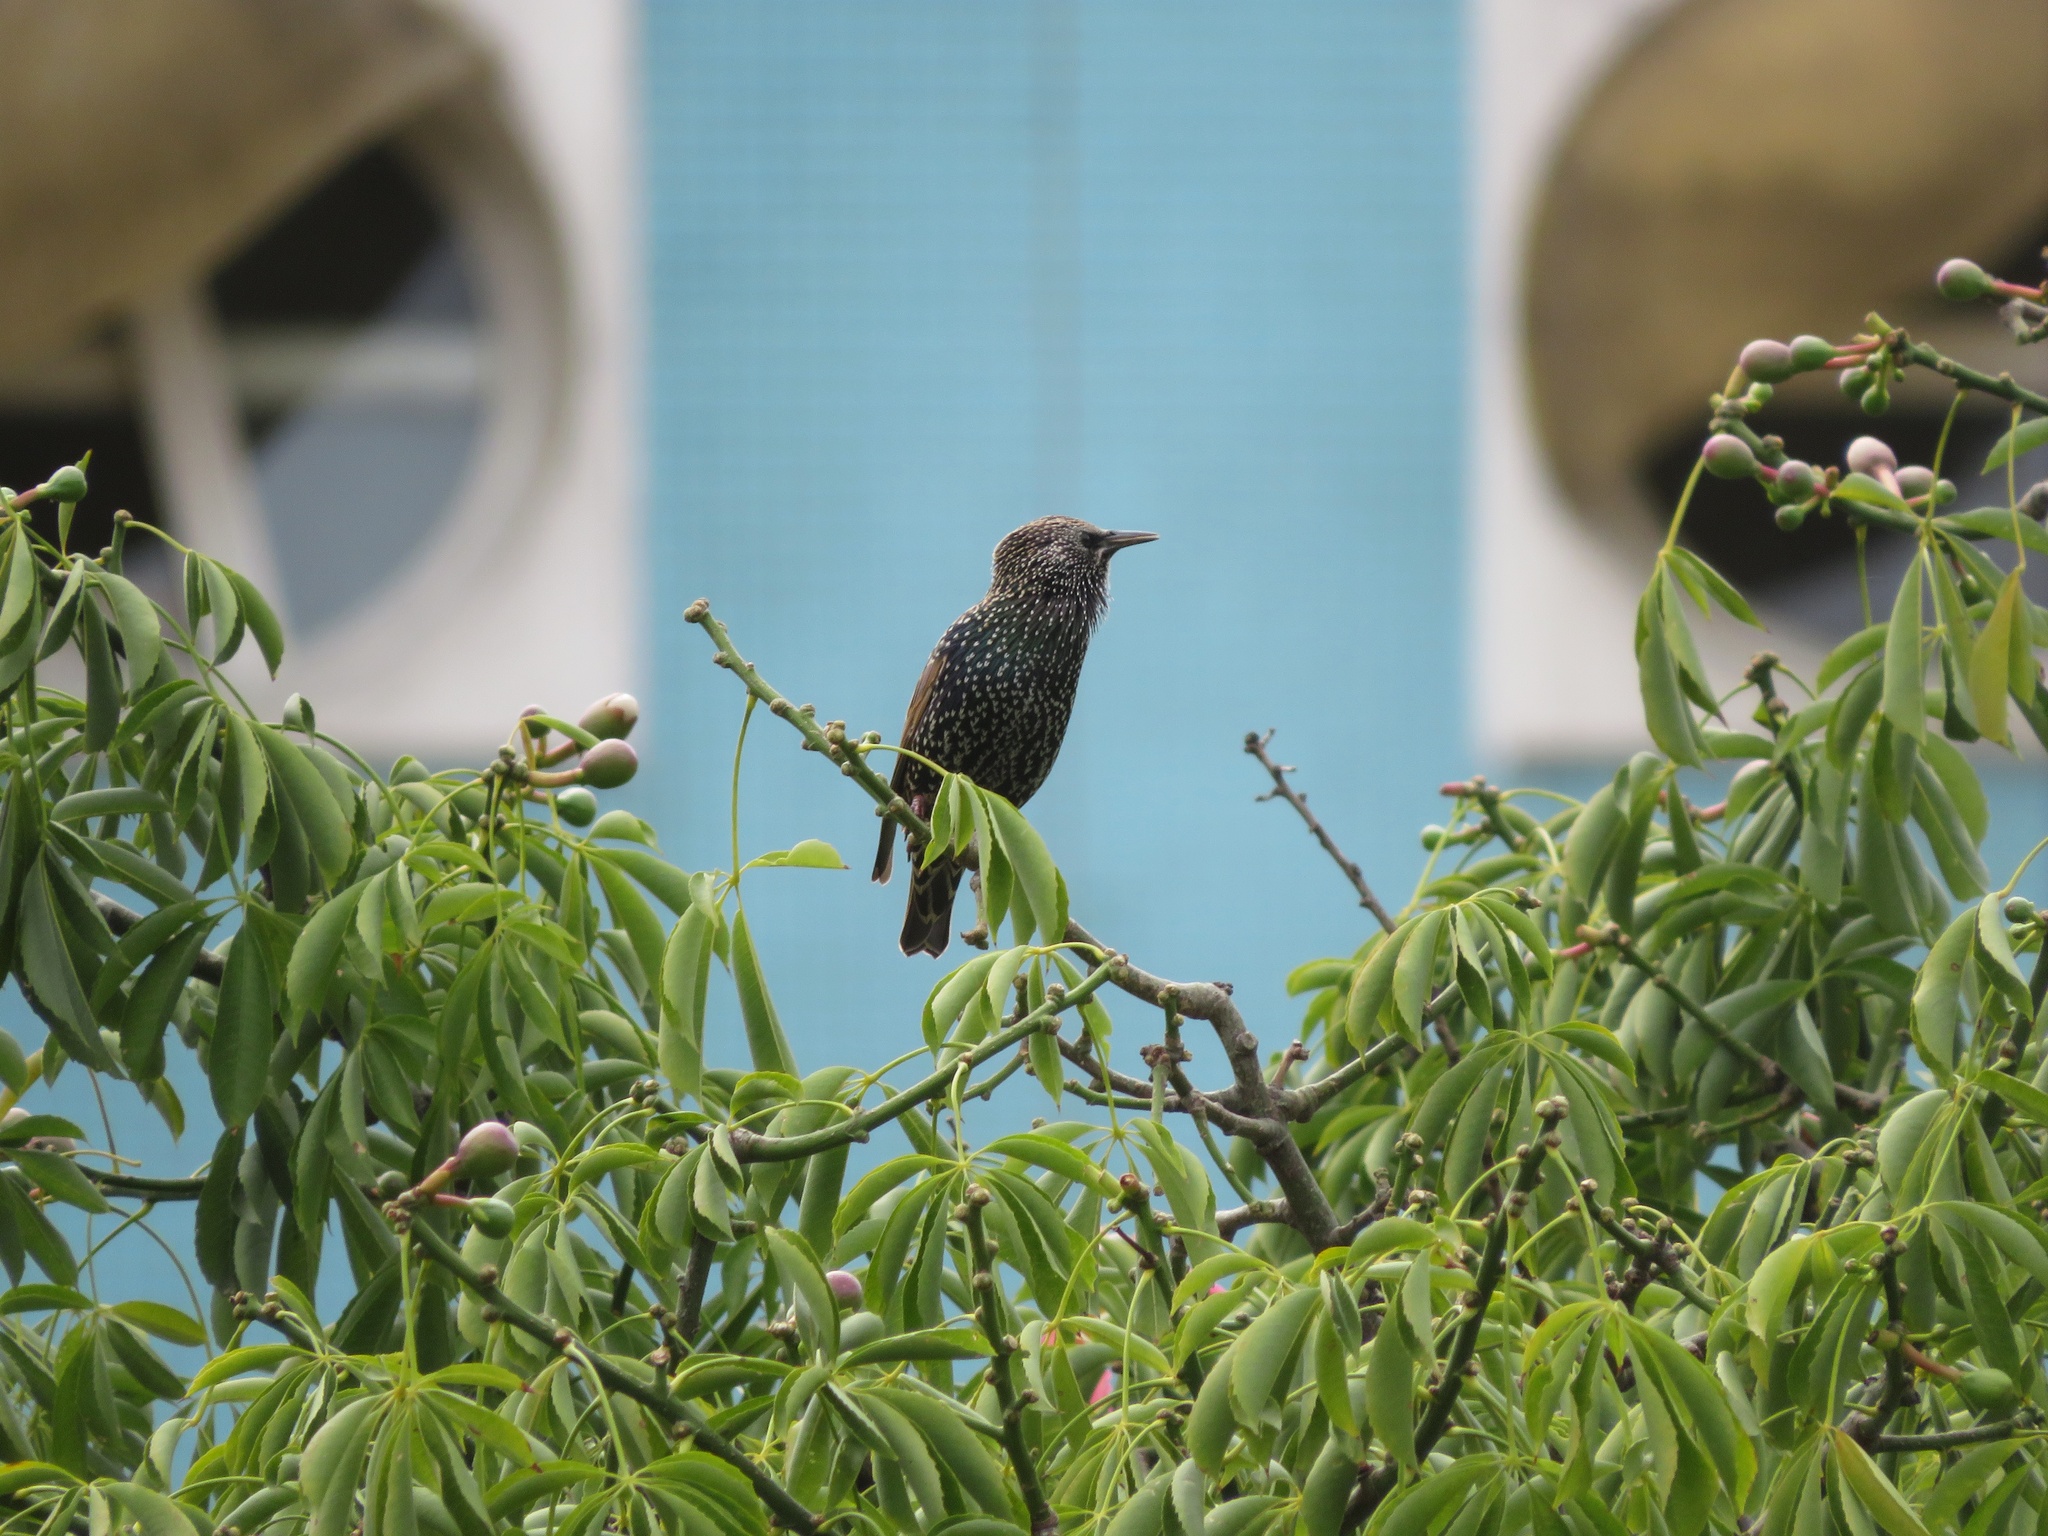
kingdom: Animalia
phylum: Chordata
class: Aves
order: Passeriformes
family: Sturnidae
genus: Sturnus
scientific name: Sturnus vulgaris
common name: Common starling
